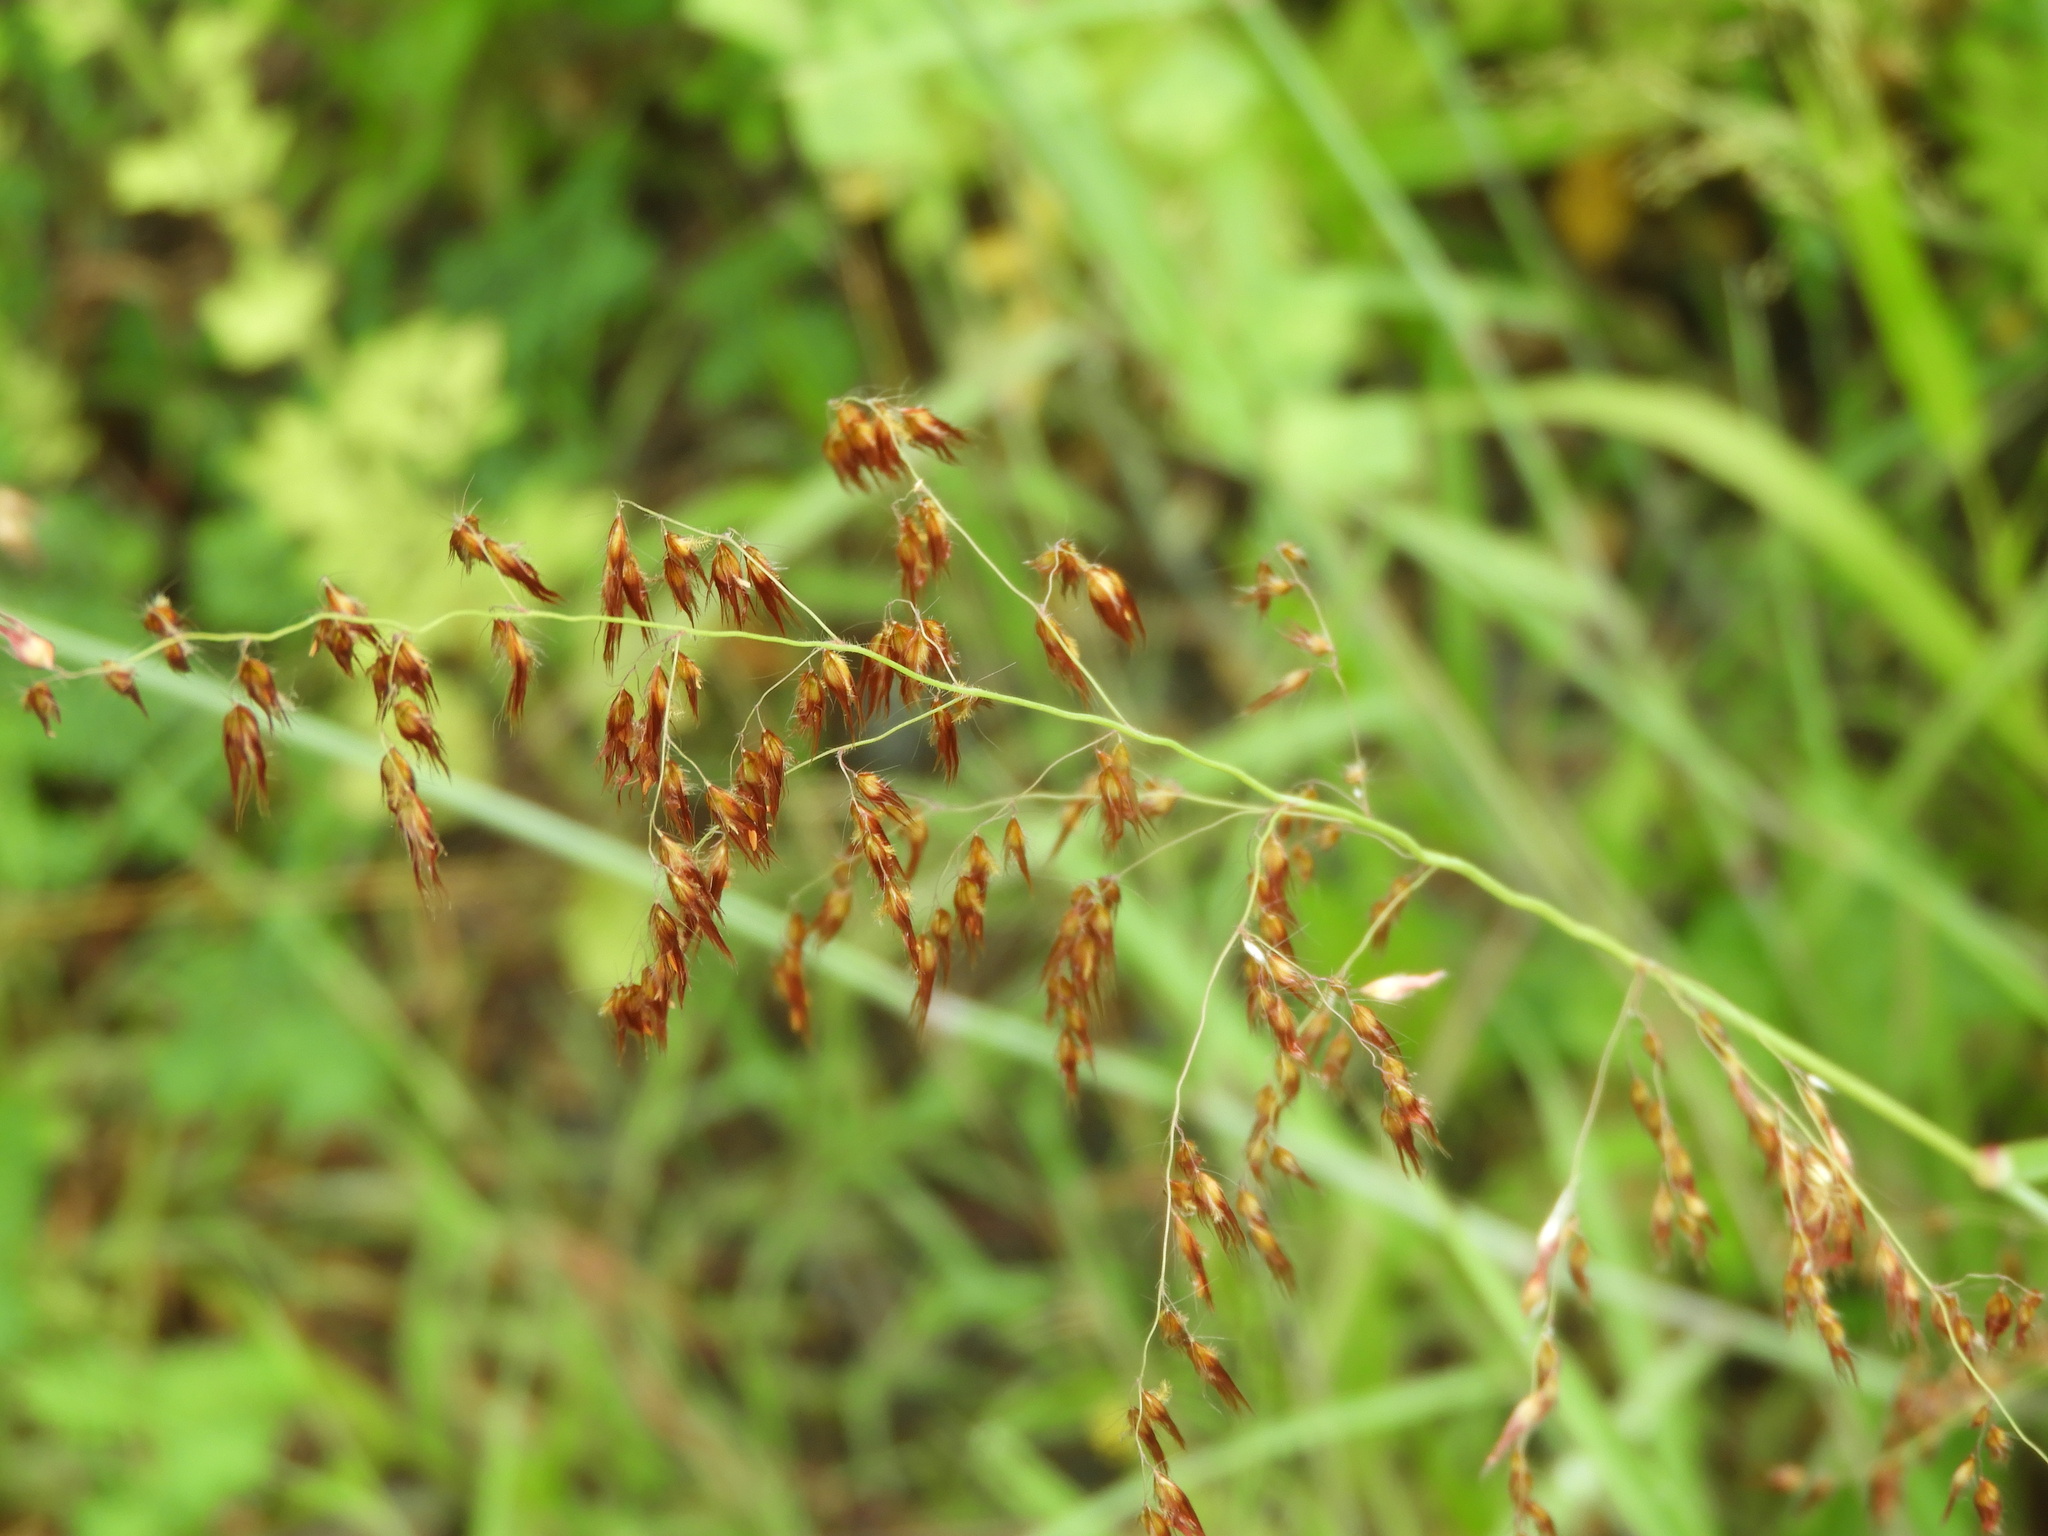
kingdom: Plantae
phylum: Tracheophyta
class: Liliopsida
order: Poales
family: Poaceae
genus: Melinis
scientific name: Melinis repens
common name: Rose natal grass
